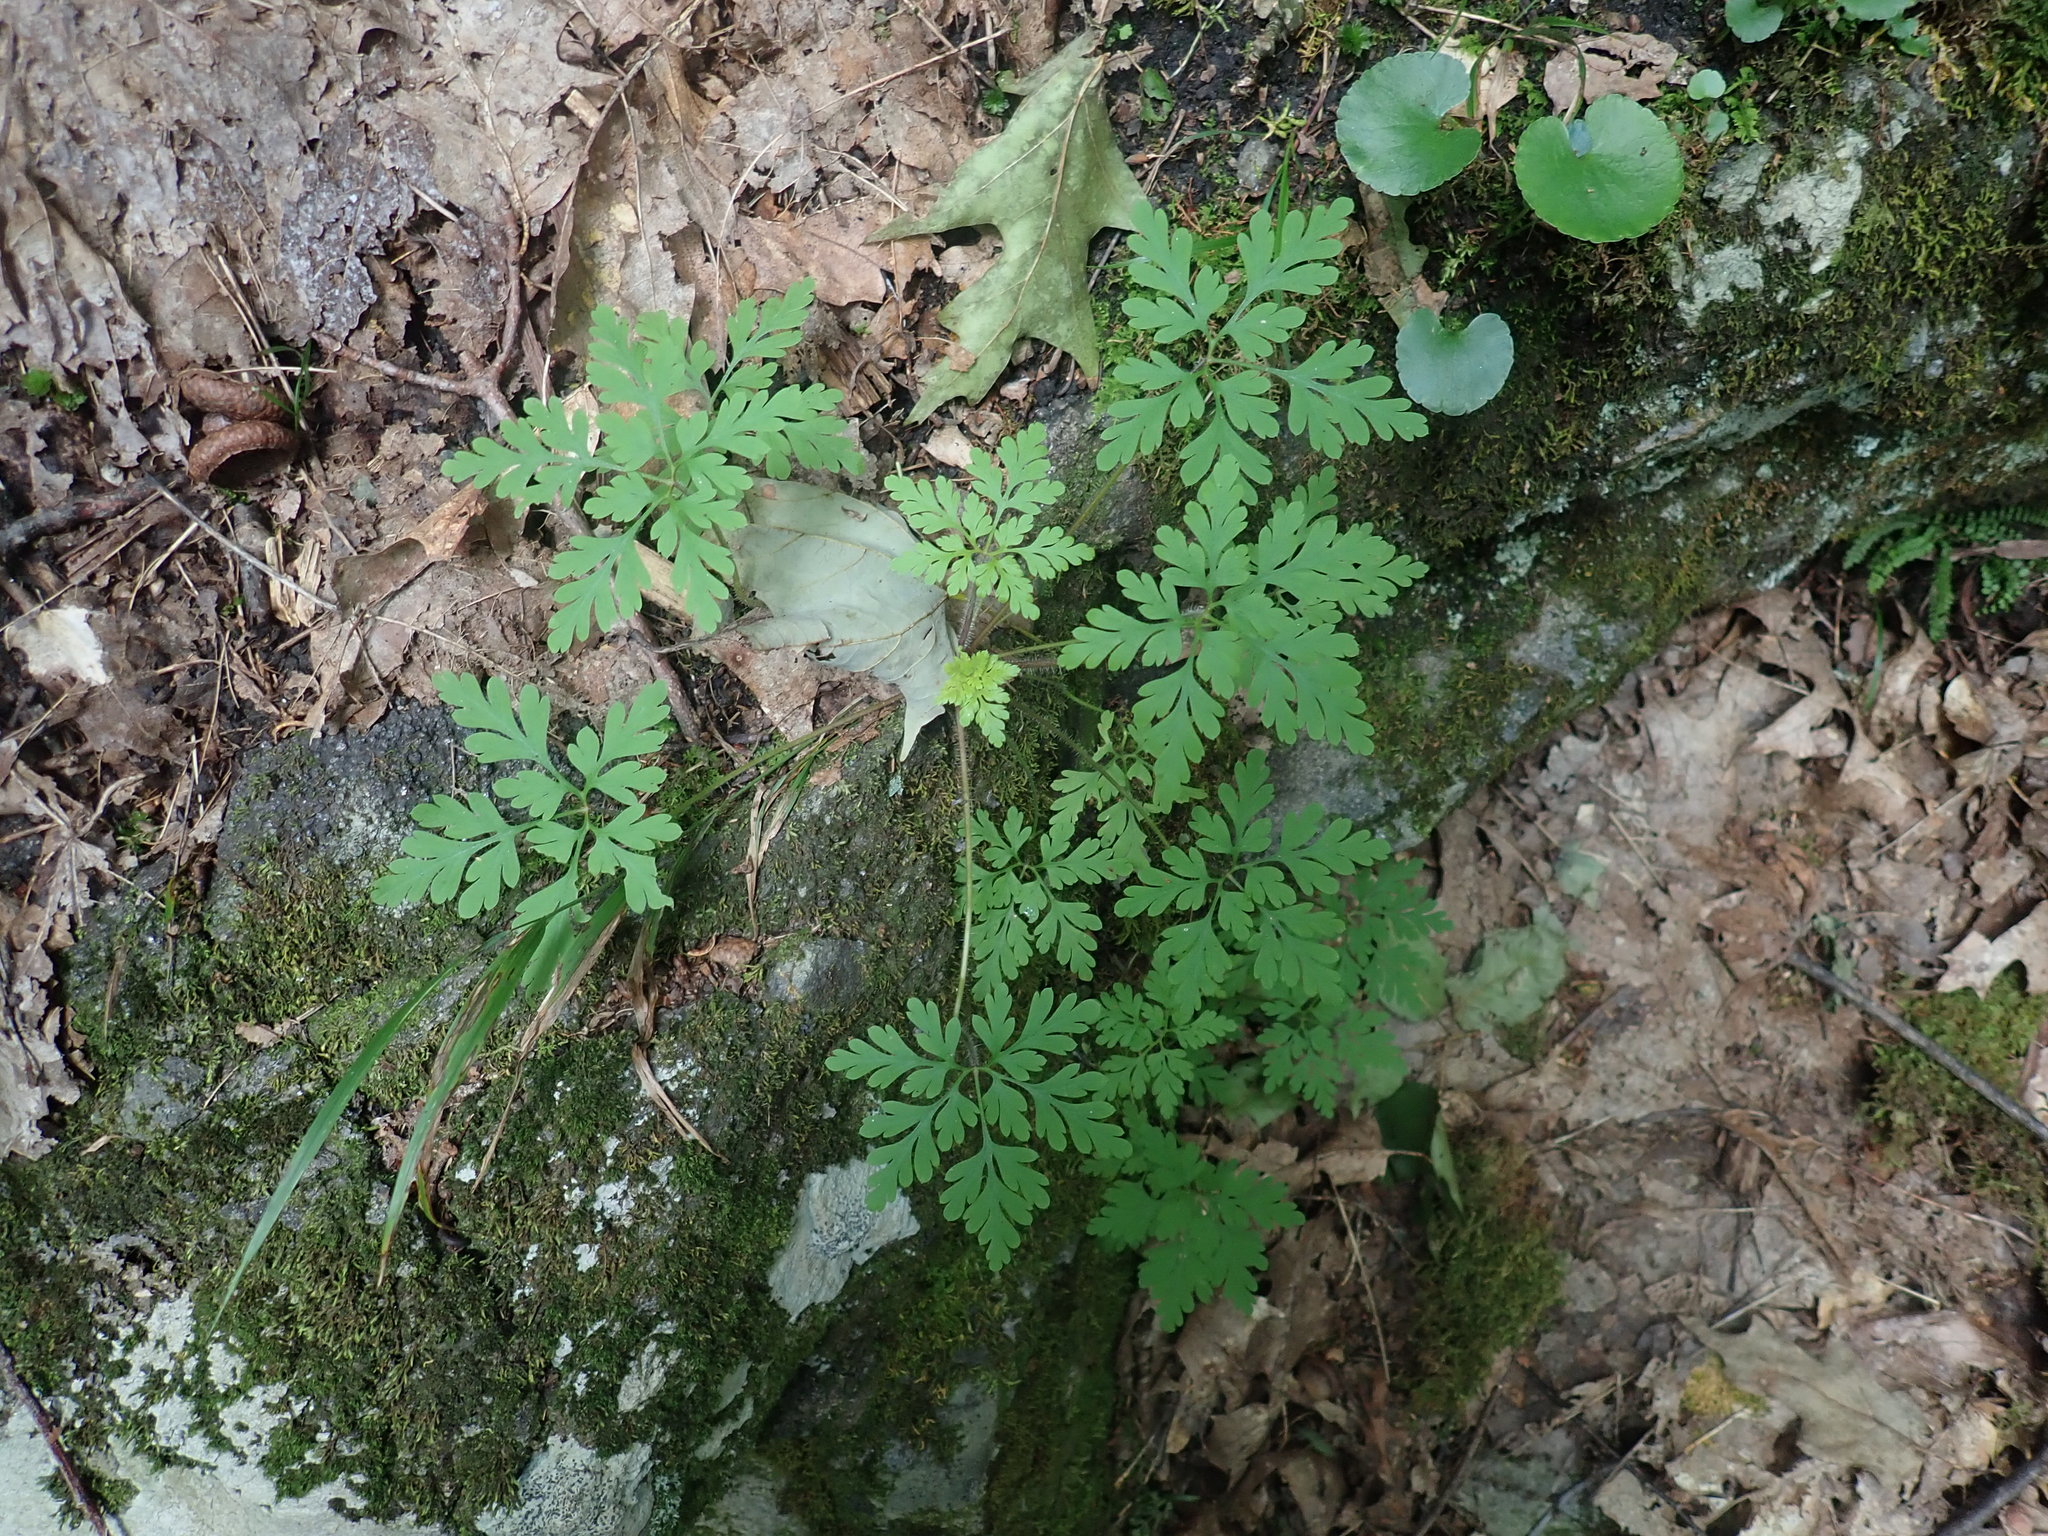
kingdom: Plantae
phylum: Tracheophyta
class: Magnoliopsida
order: Geraniales
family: Geraniaceae
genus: Geranium
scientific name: Geranium robertianum
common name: Herb-robert
